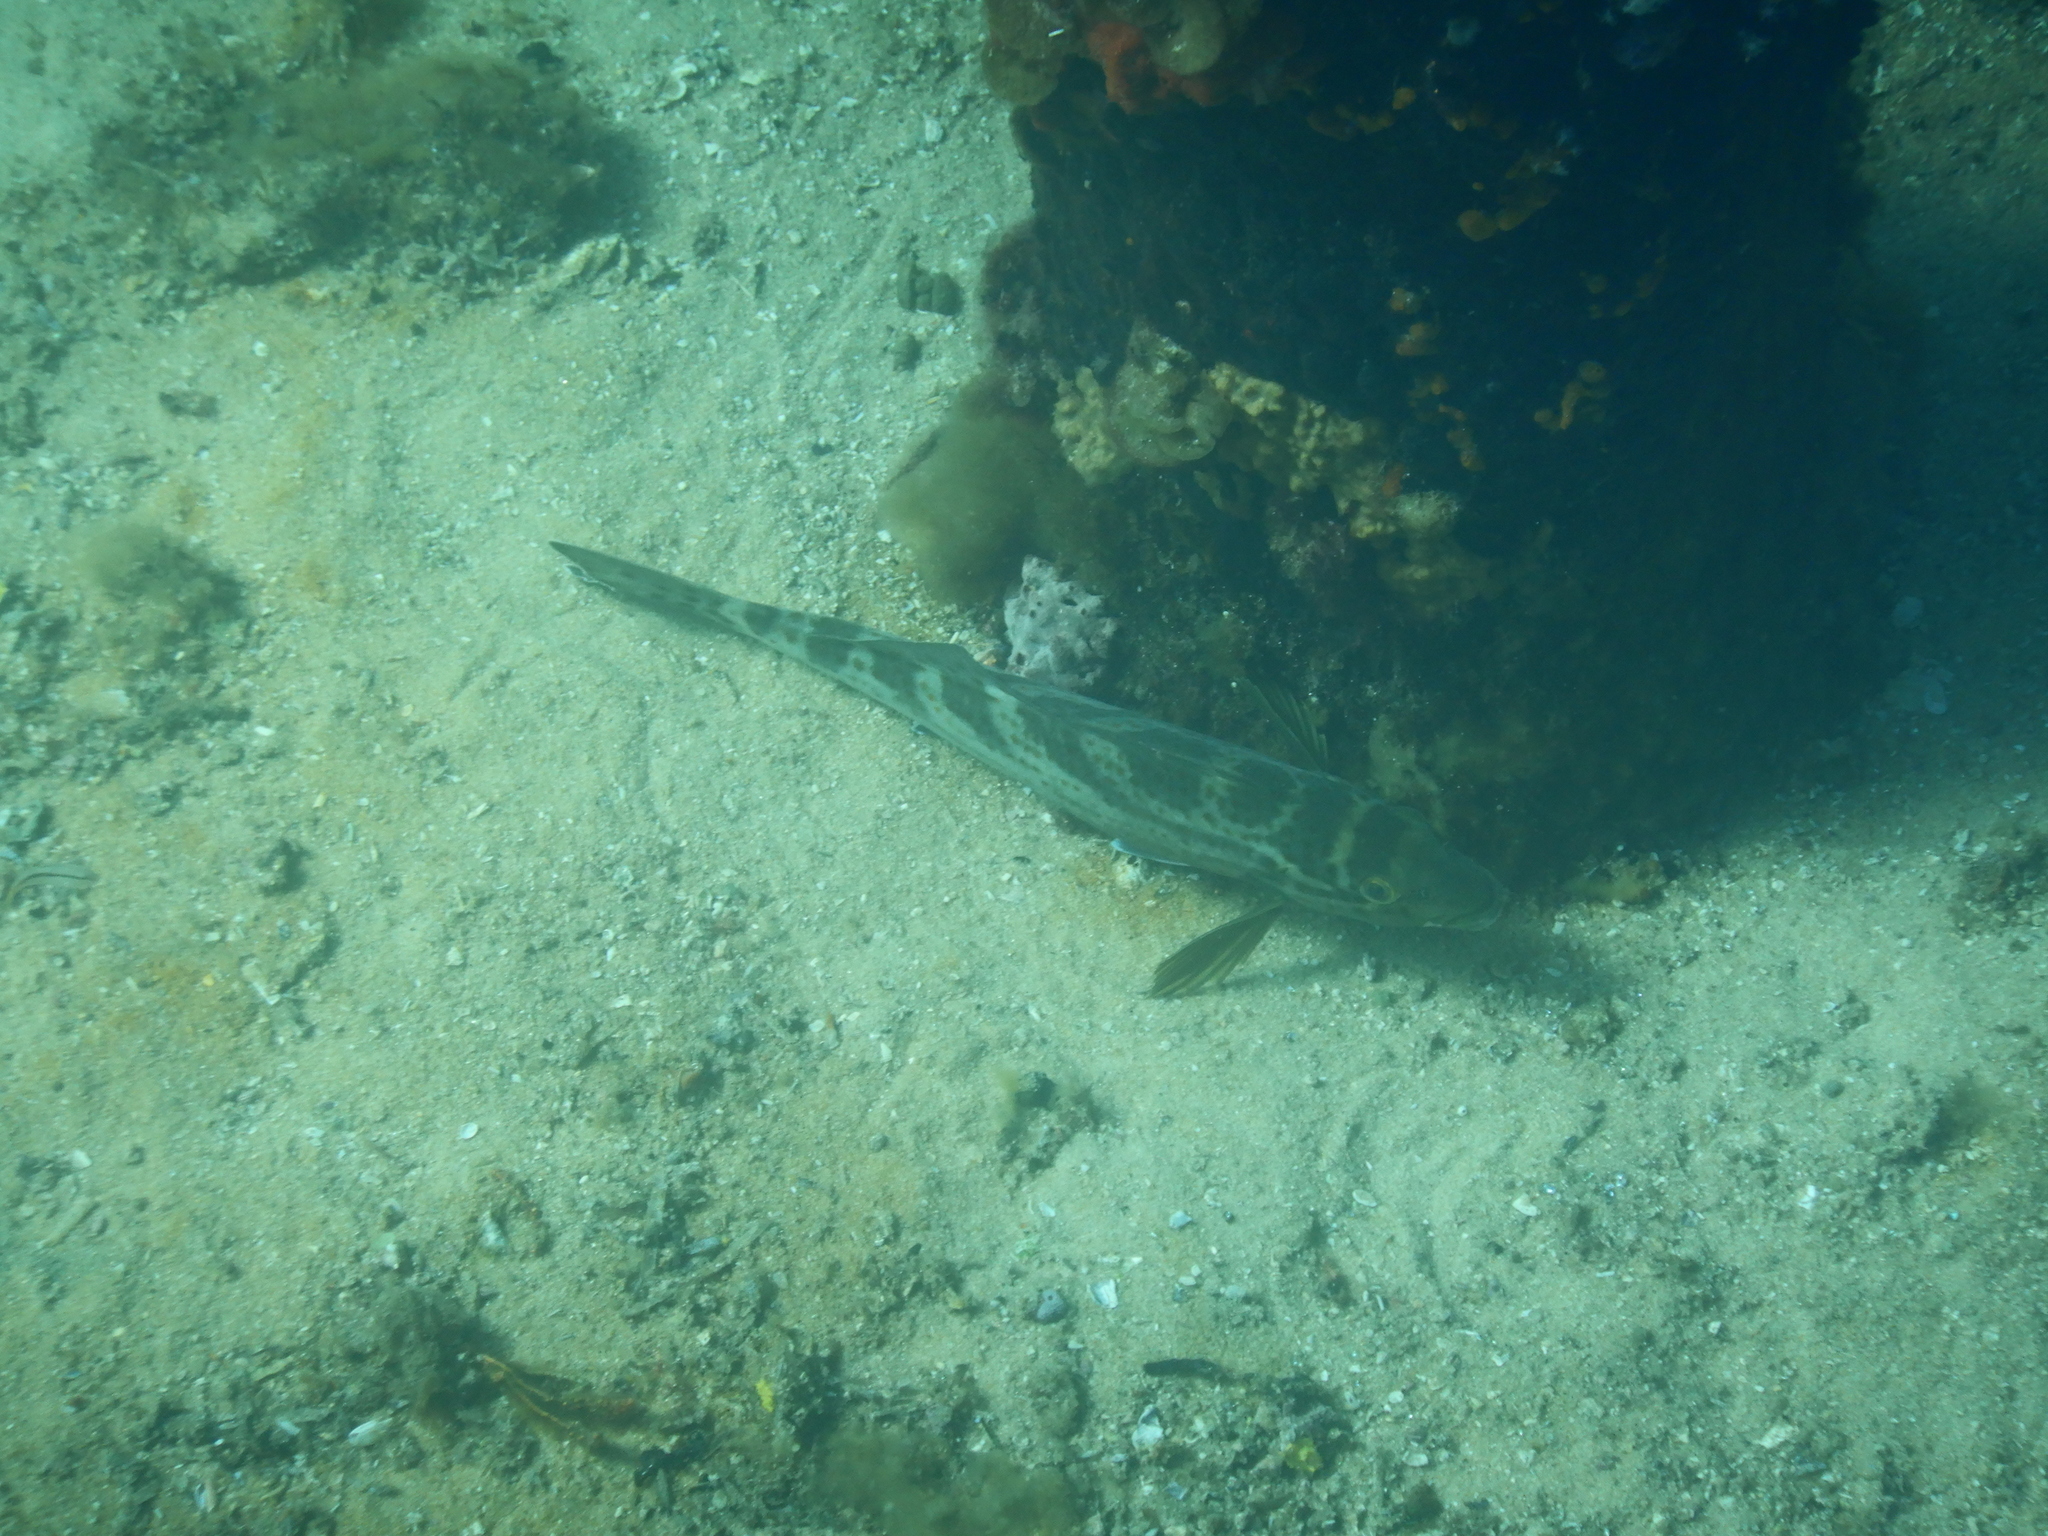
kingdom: Animalia
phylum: Chordata
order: Perciformes
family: Cheilodactylidae
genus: Dactylophora
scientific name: Dactylophora nigricans
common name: Dusky morwong
